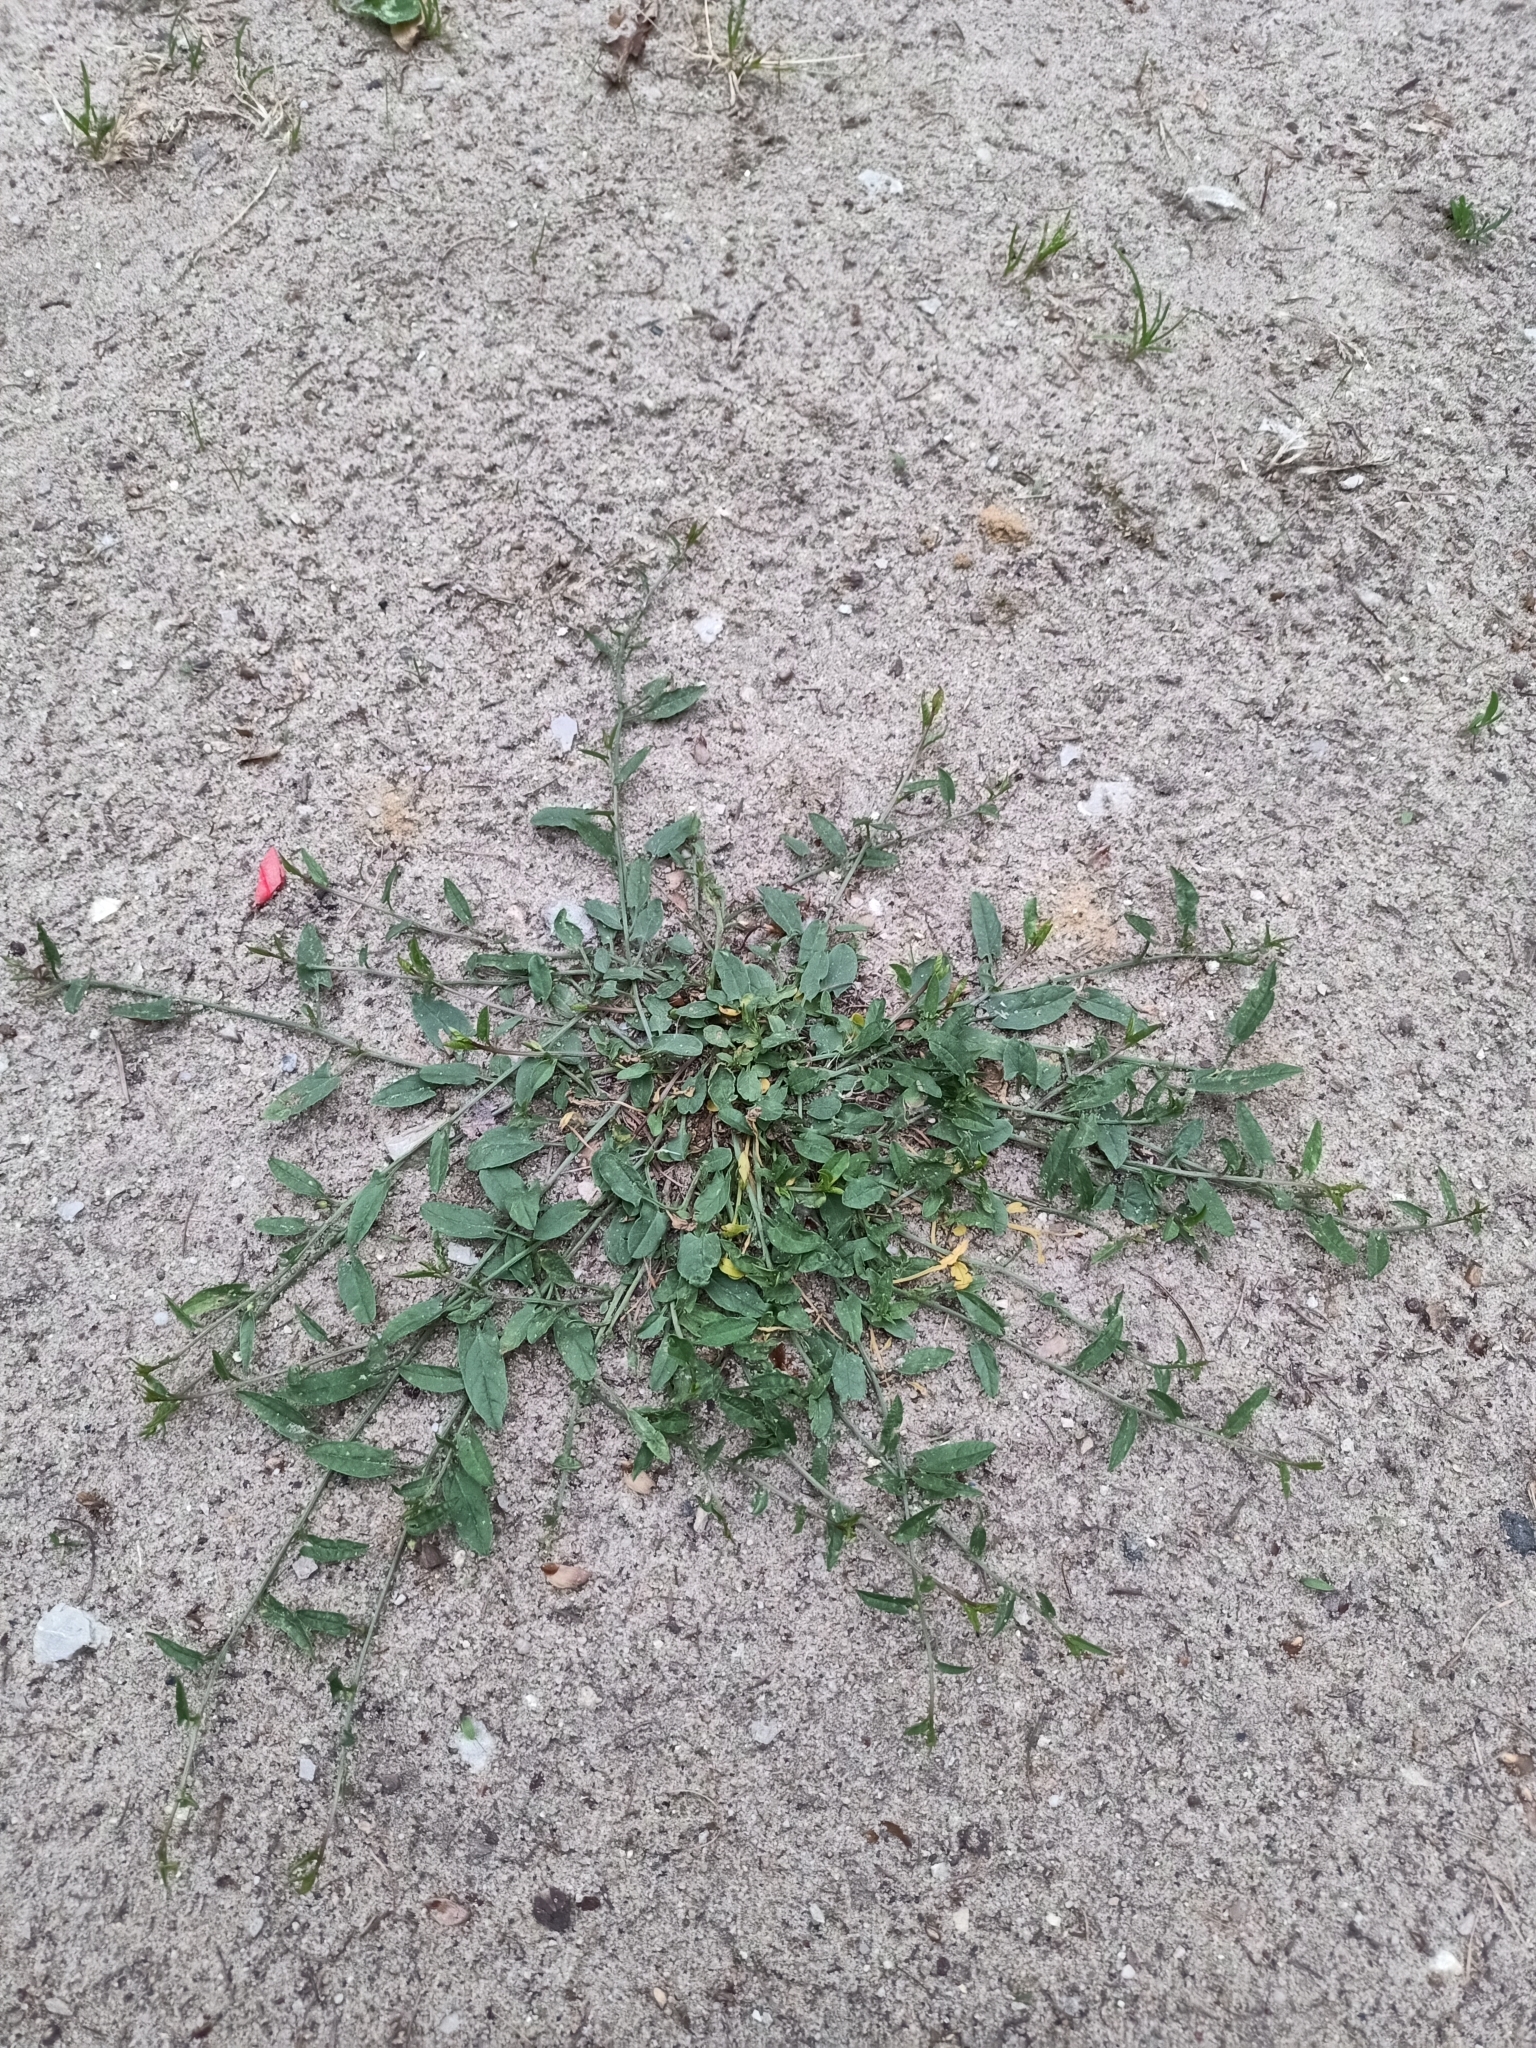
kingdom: Plantae
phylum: Tracheophyta
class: Magnoliopsida
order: Solanales
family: Convolvulaceae
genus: Convolvulus
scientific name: Convolvulus arvensis
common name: Field bindweed
